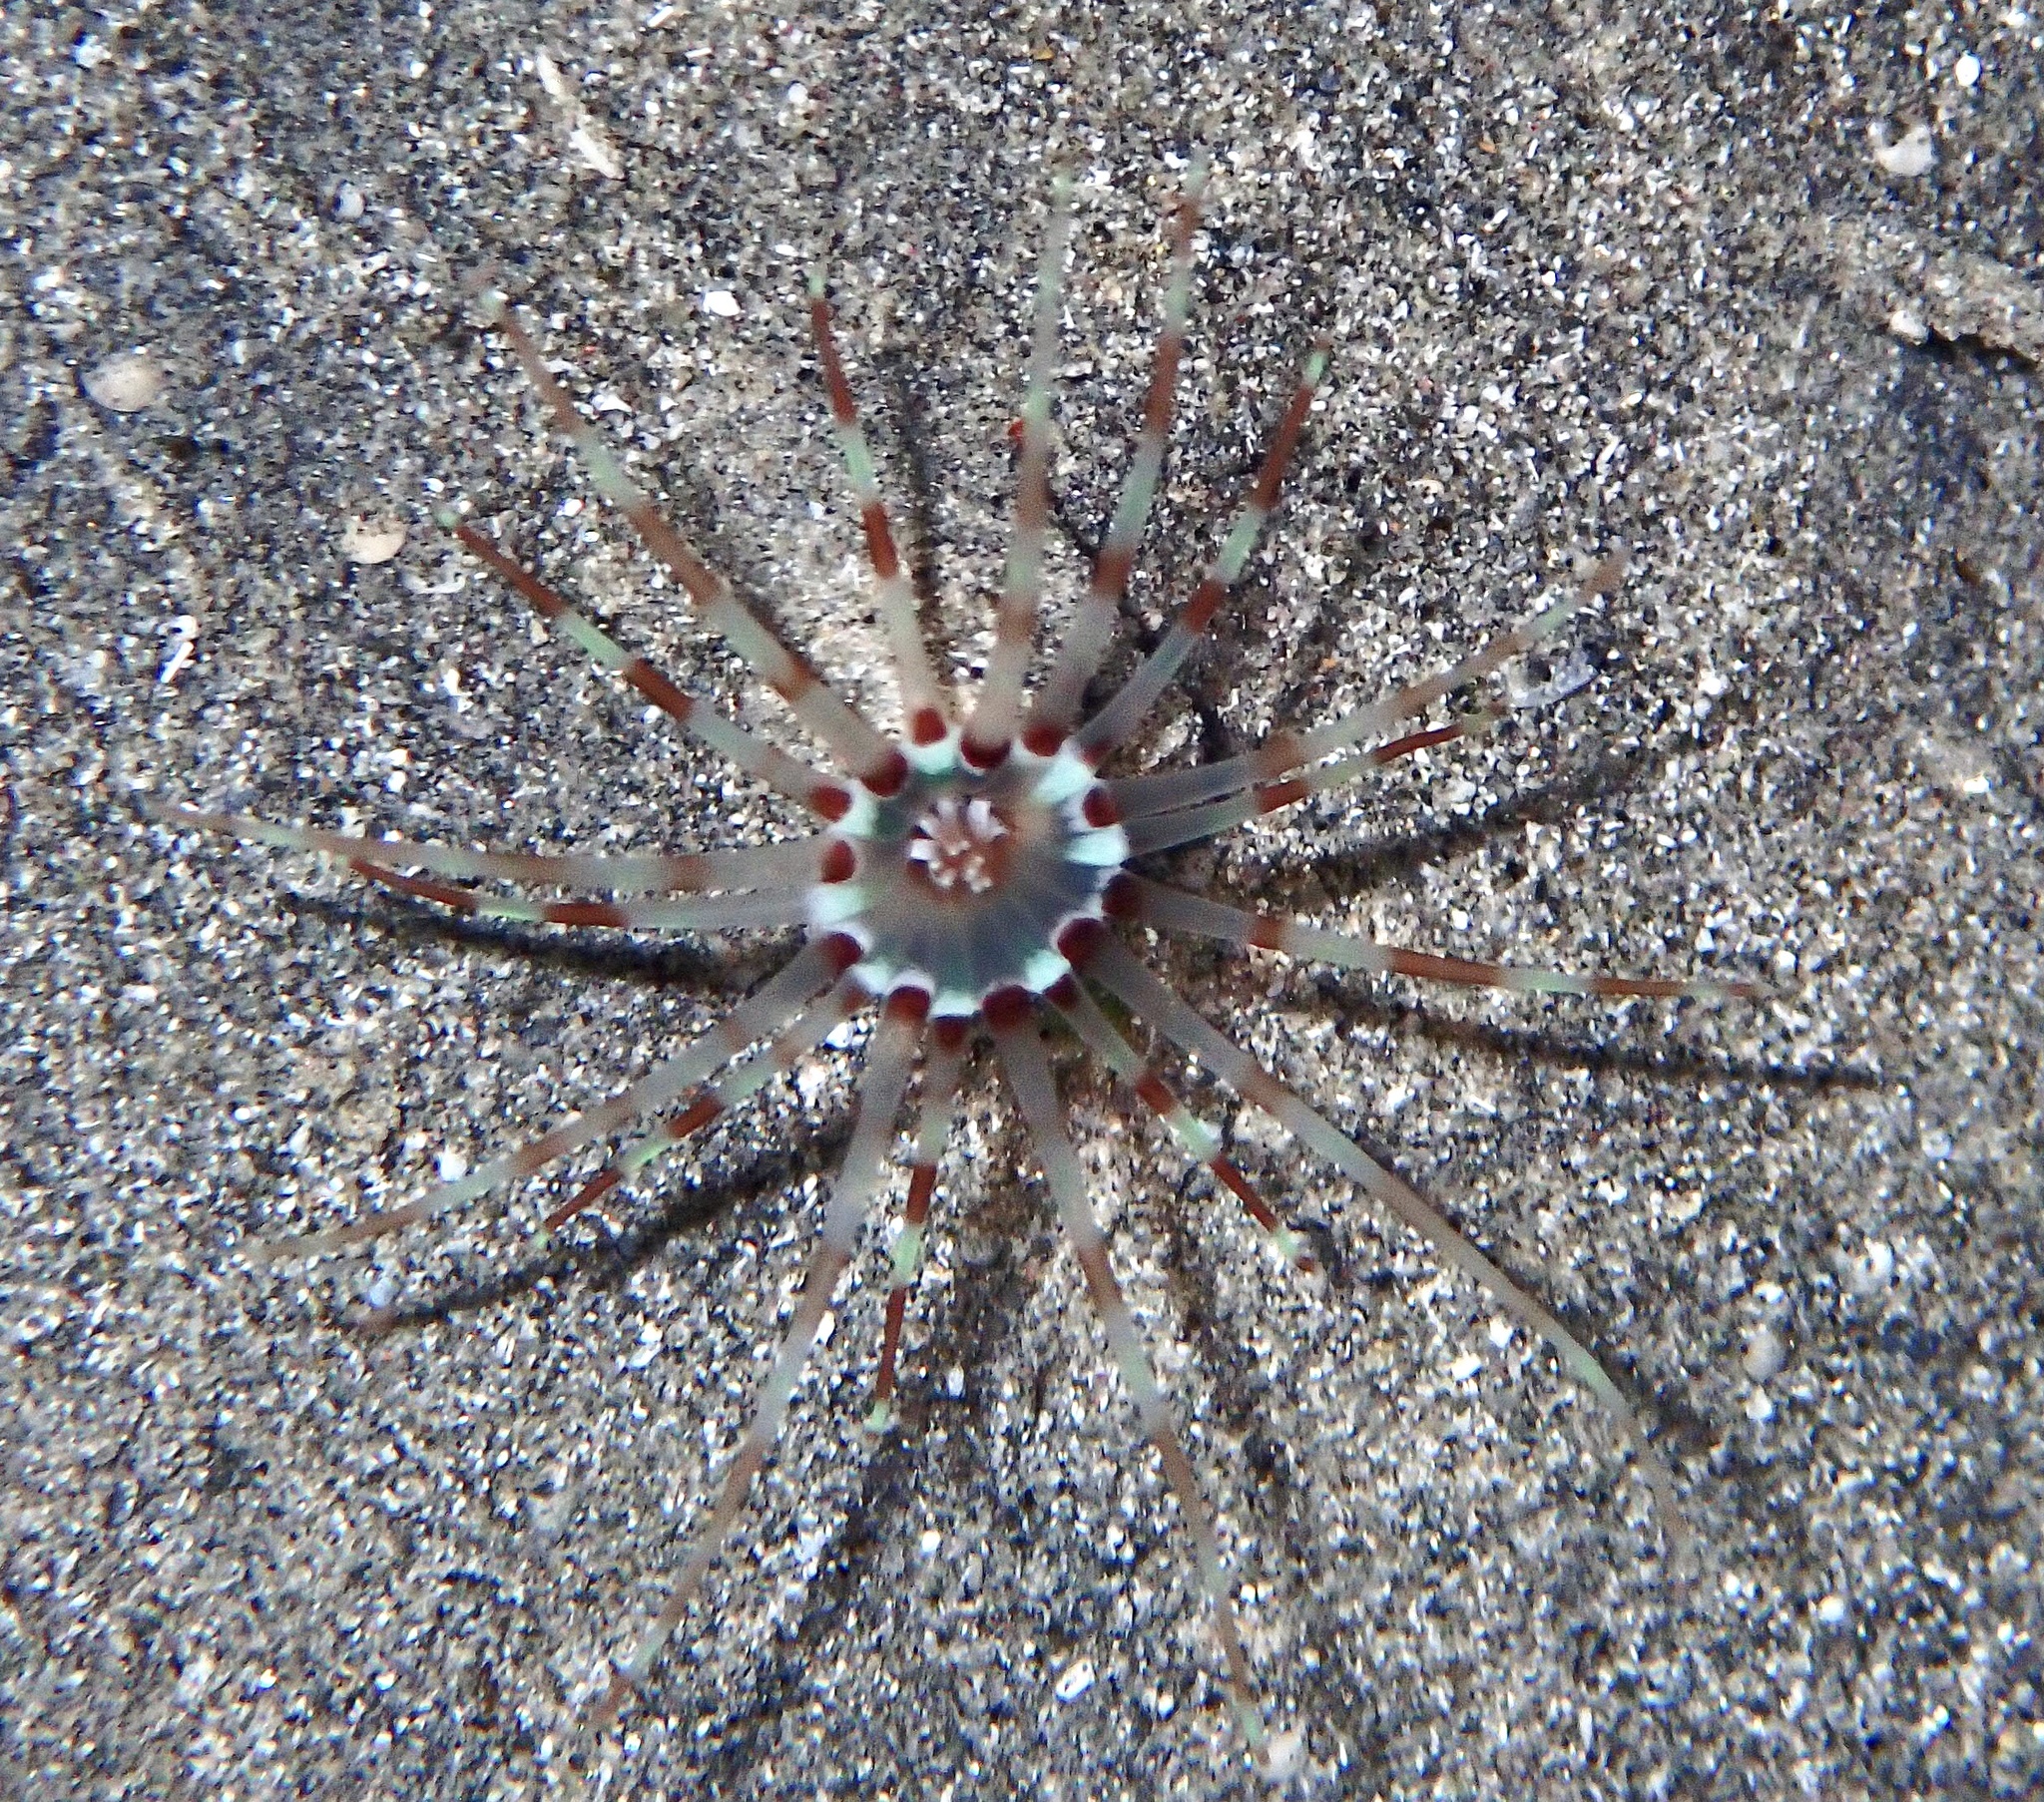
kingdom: Animalia
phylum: Cnidaria
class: Anthozoa
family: Arachnactidae
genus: Arachnanthus
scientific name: Arachnanthus lilith
